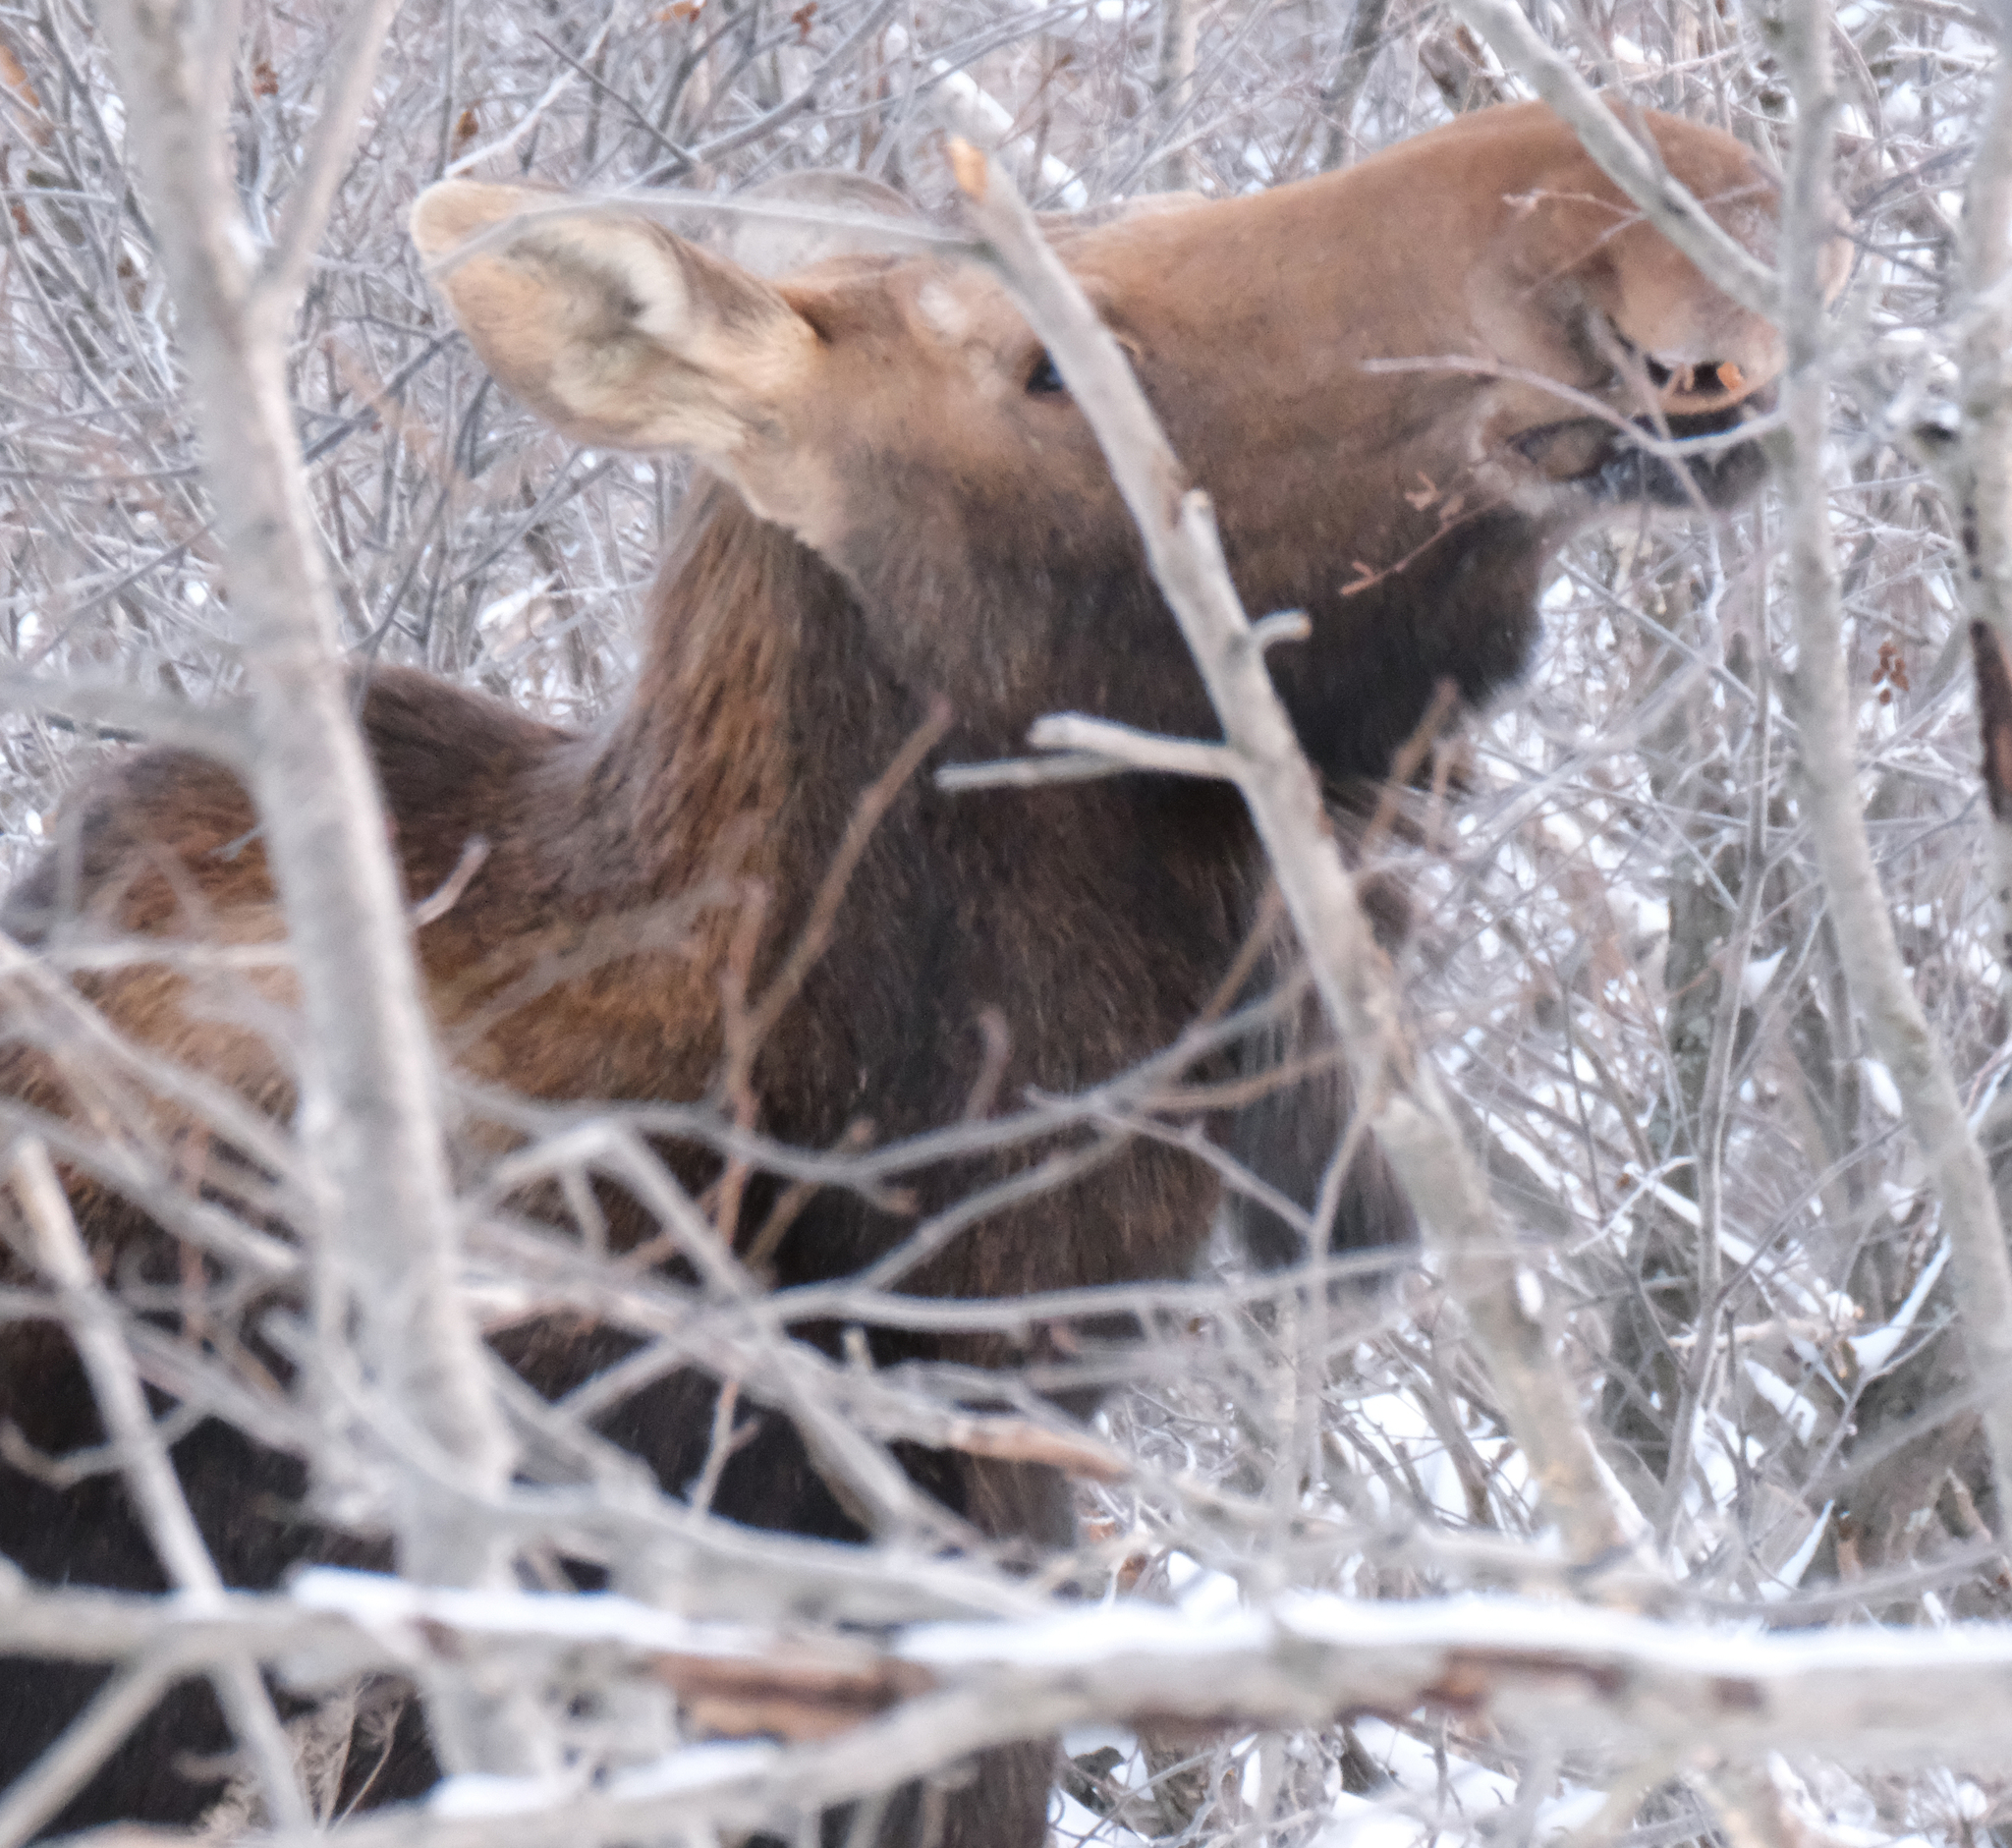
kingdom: Animalia
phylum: Chordata
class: Mammalia
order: Artiodactyla
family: Cervidae
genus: Alces
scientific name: Alces alces
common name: Moose
